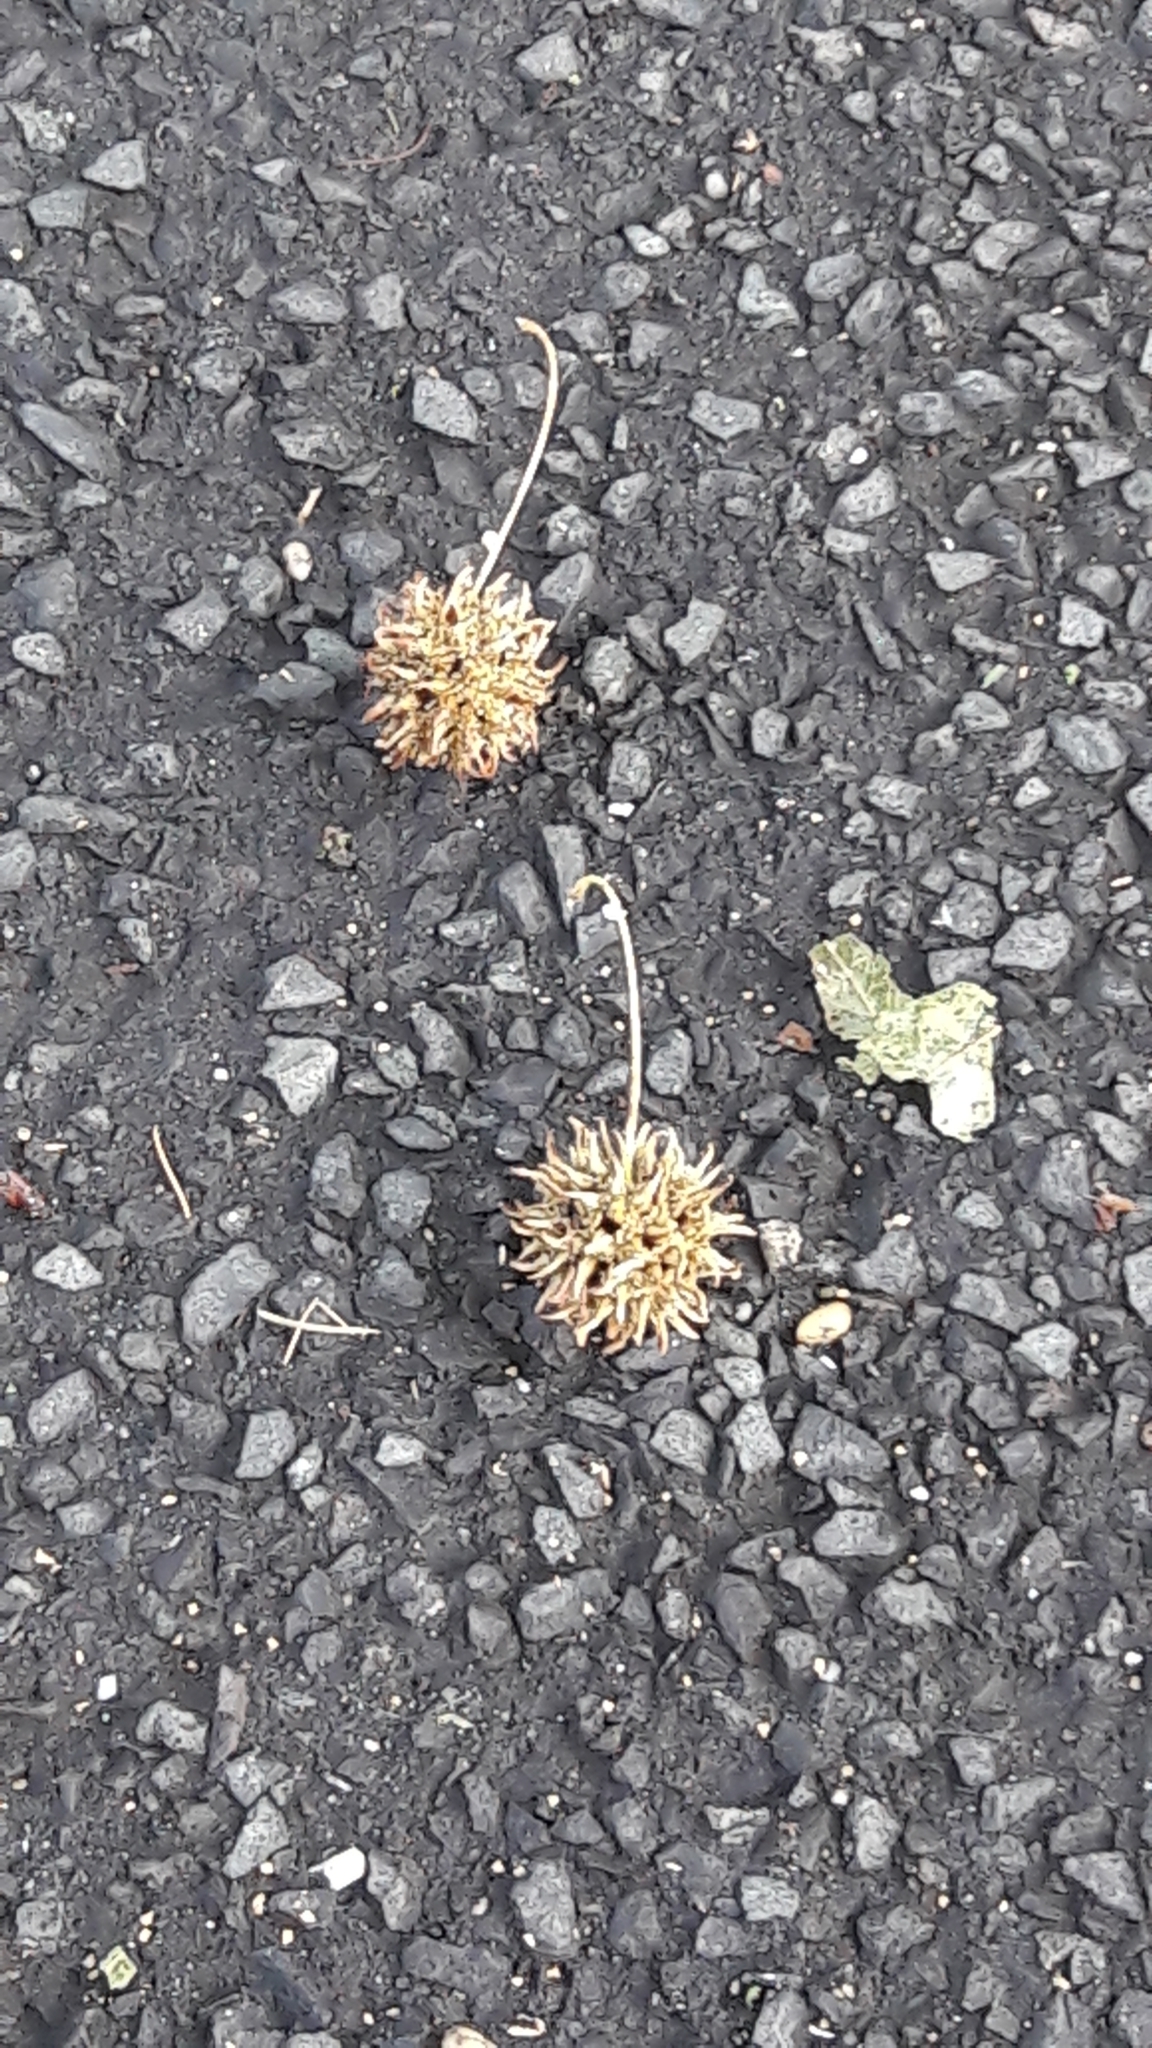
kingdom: Plantae
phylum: Tracheophyta
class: Magnoliopsida
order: Saxifragales
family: Altingiaceae
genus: Liquidambar
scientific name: Liquidambar styraciflua
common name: Sweet gum
